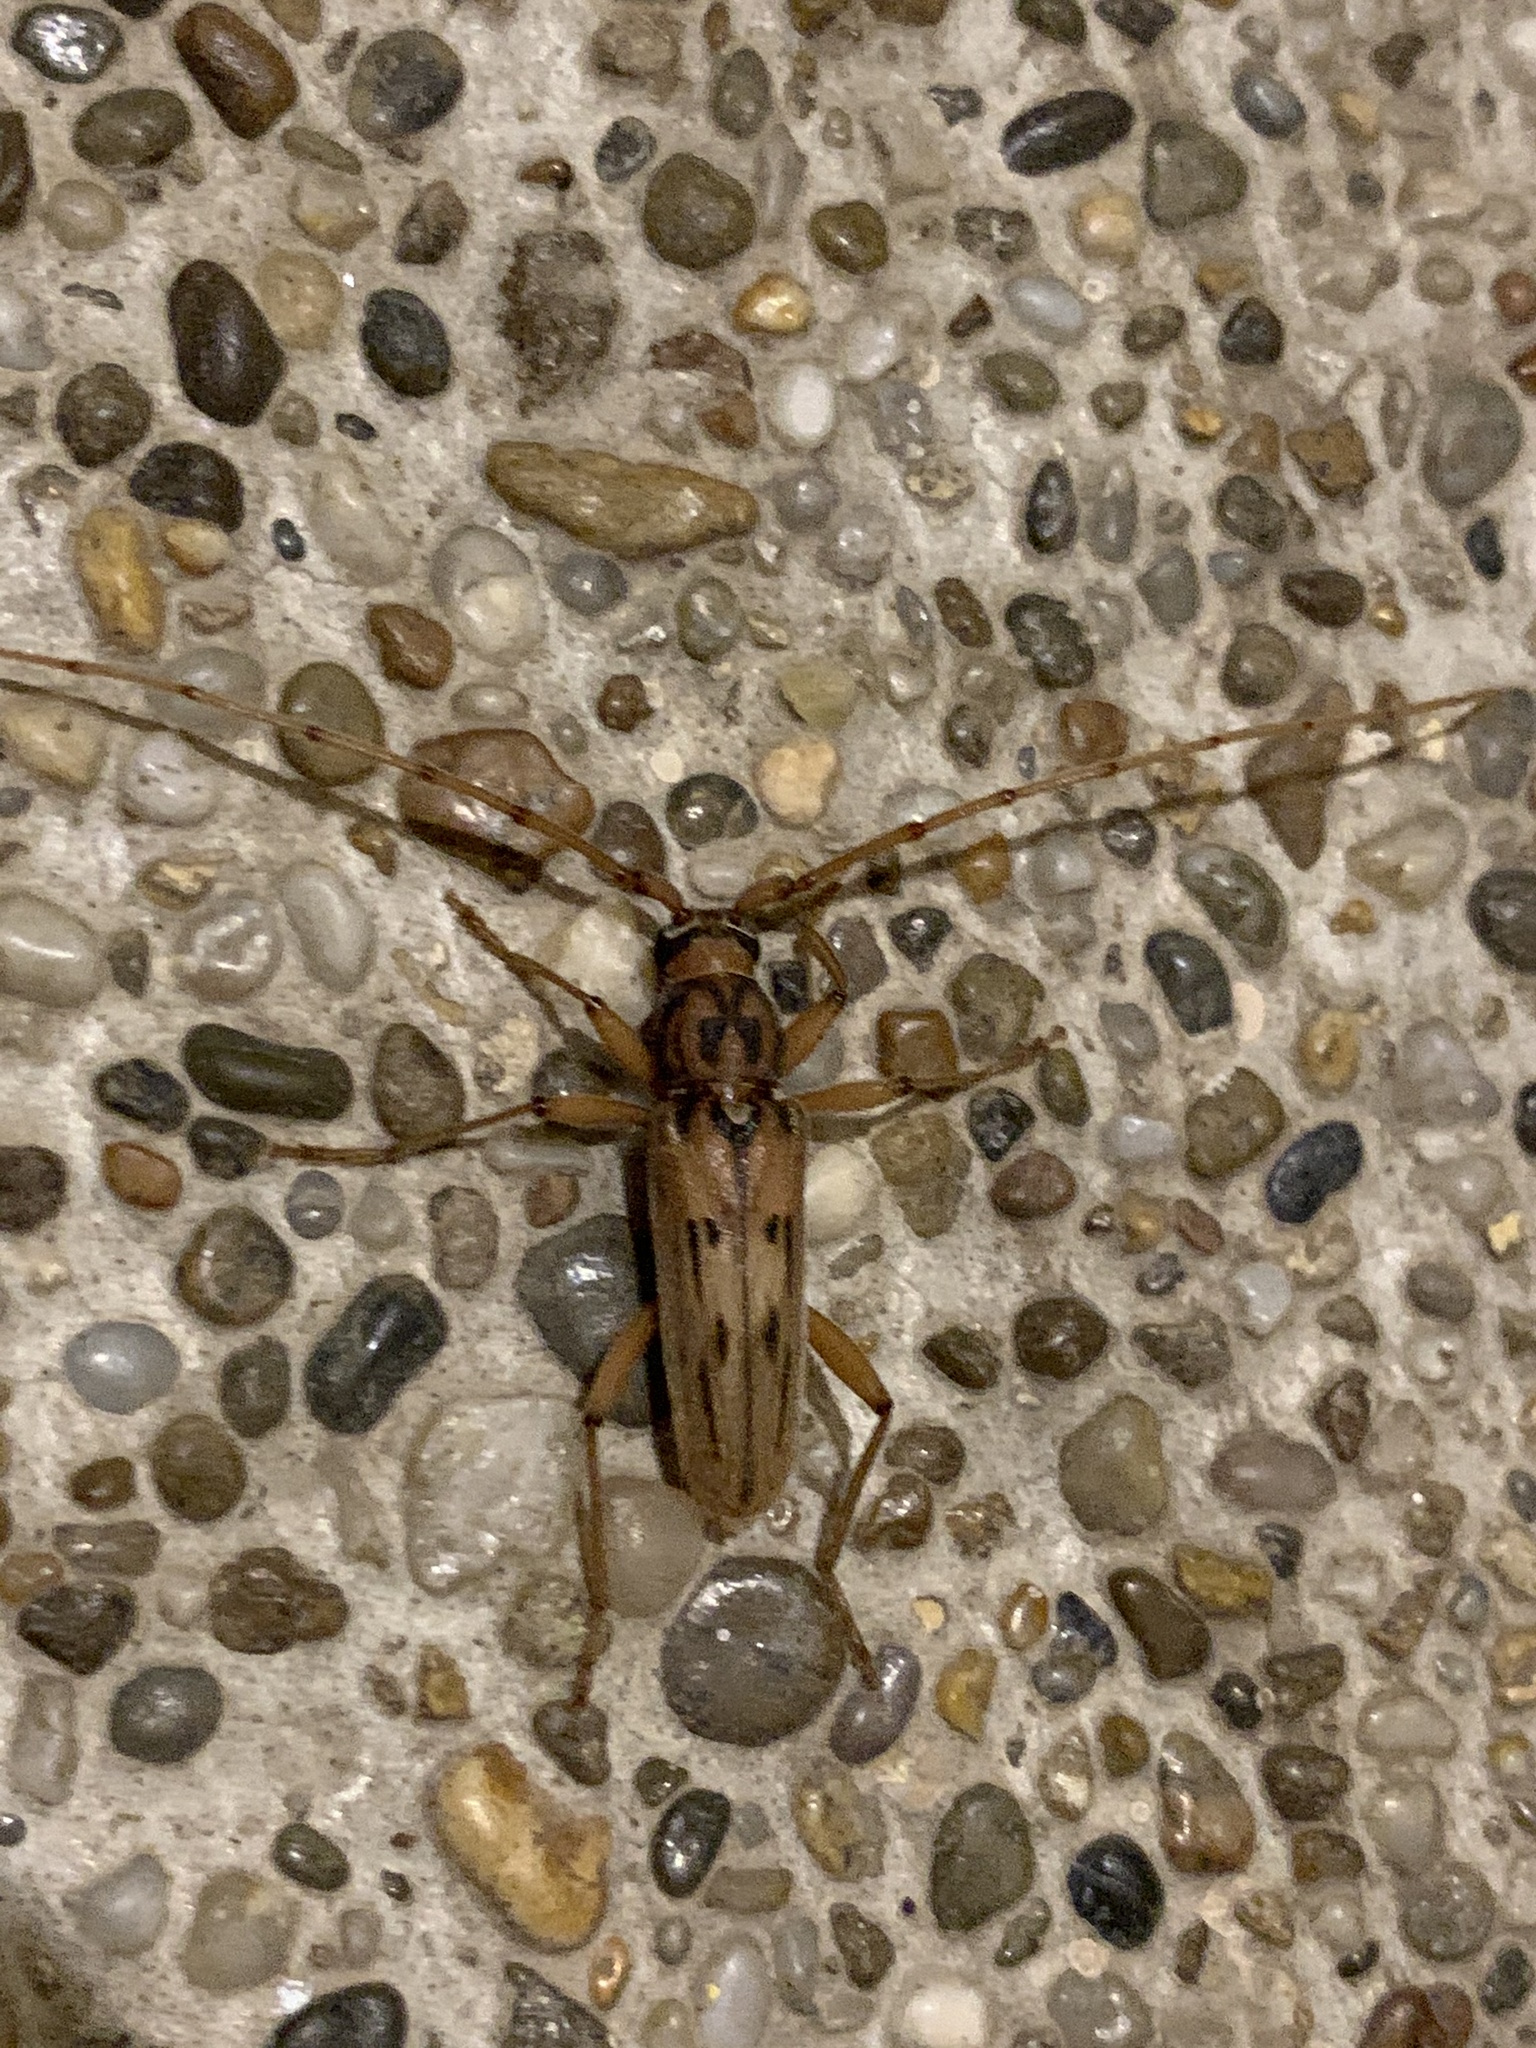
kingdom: Animalia
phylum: Arthropoda
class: Insecta
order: Coleoptera
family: Cerambycidae
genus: Achryson
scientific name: Achryson lineolatum
